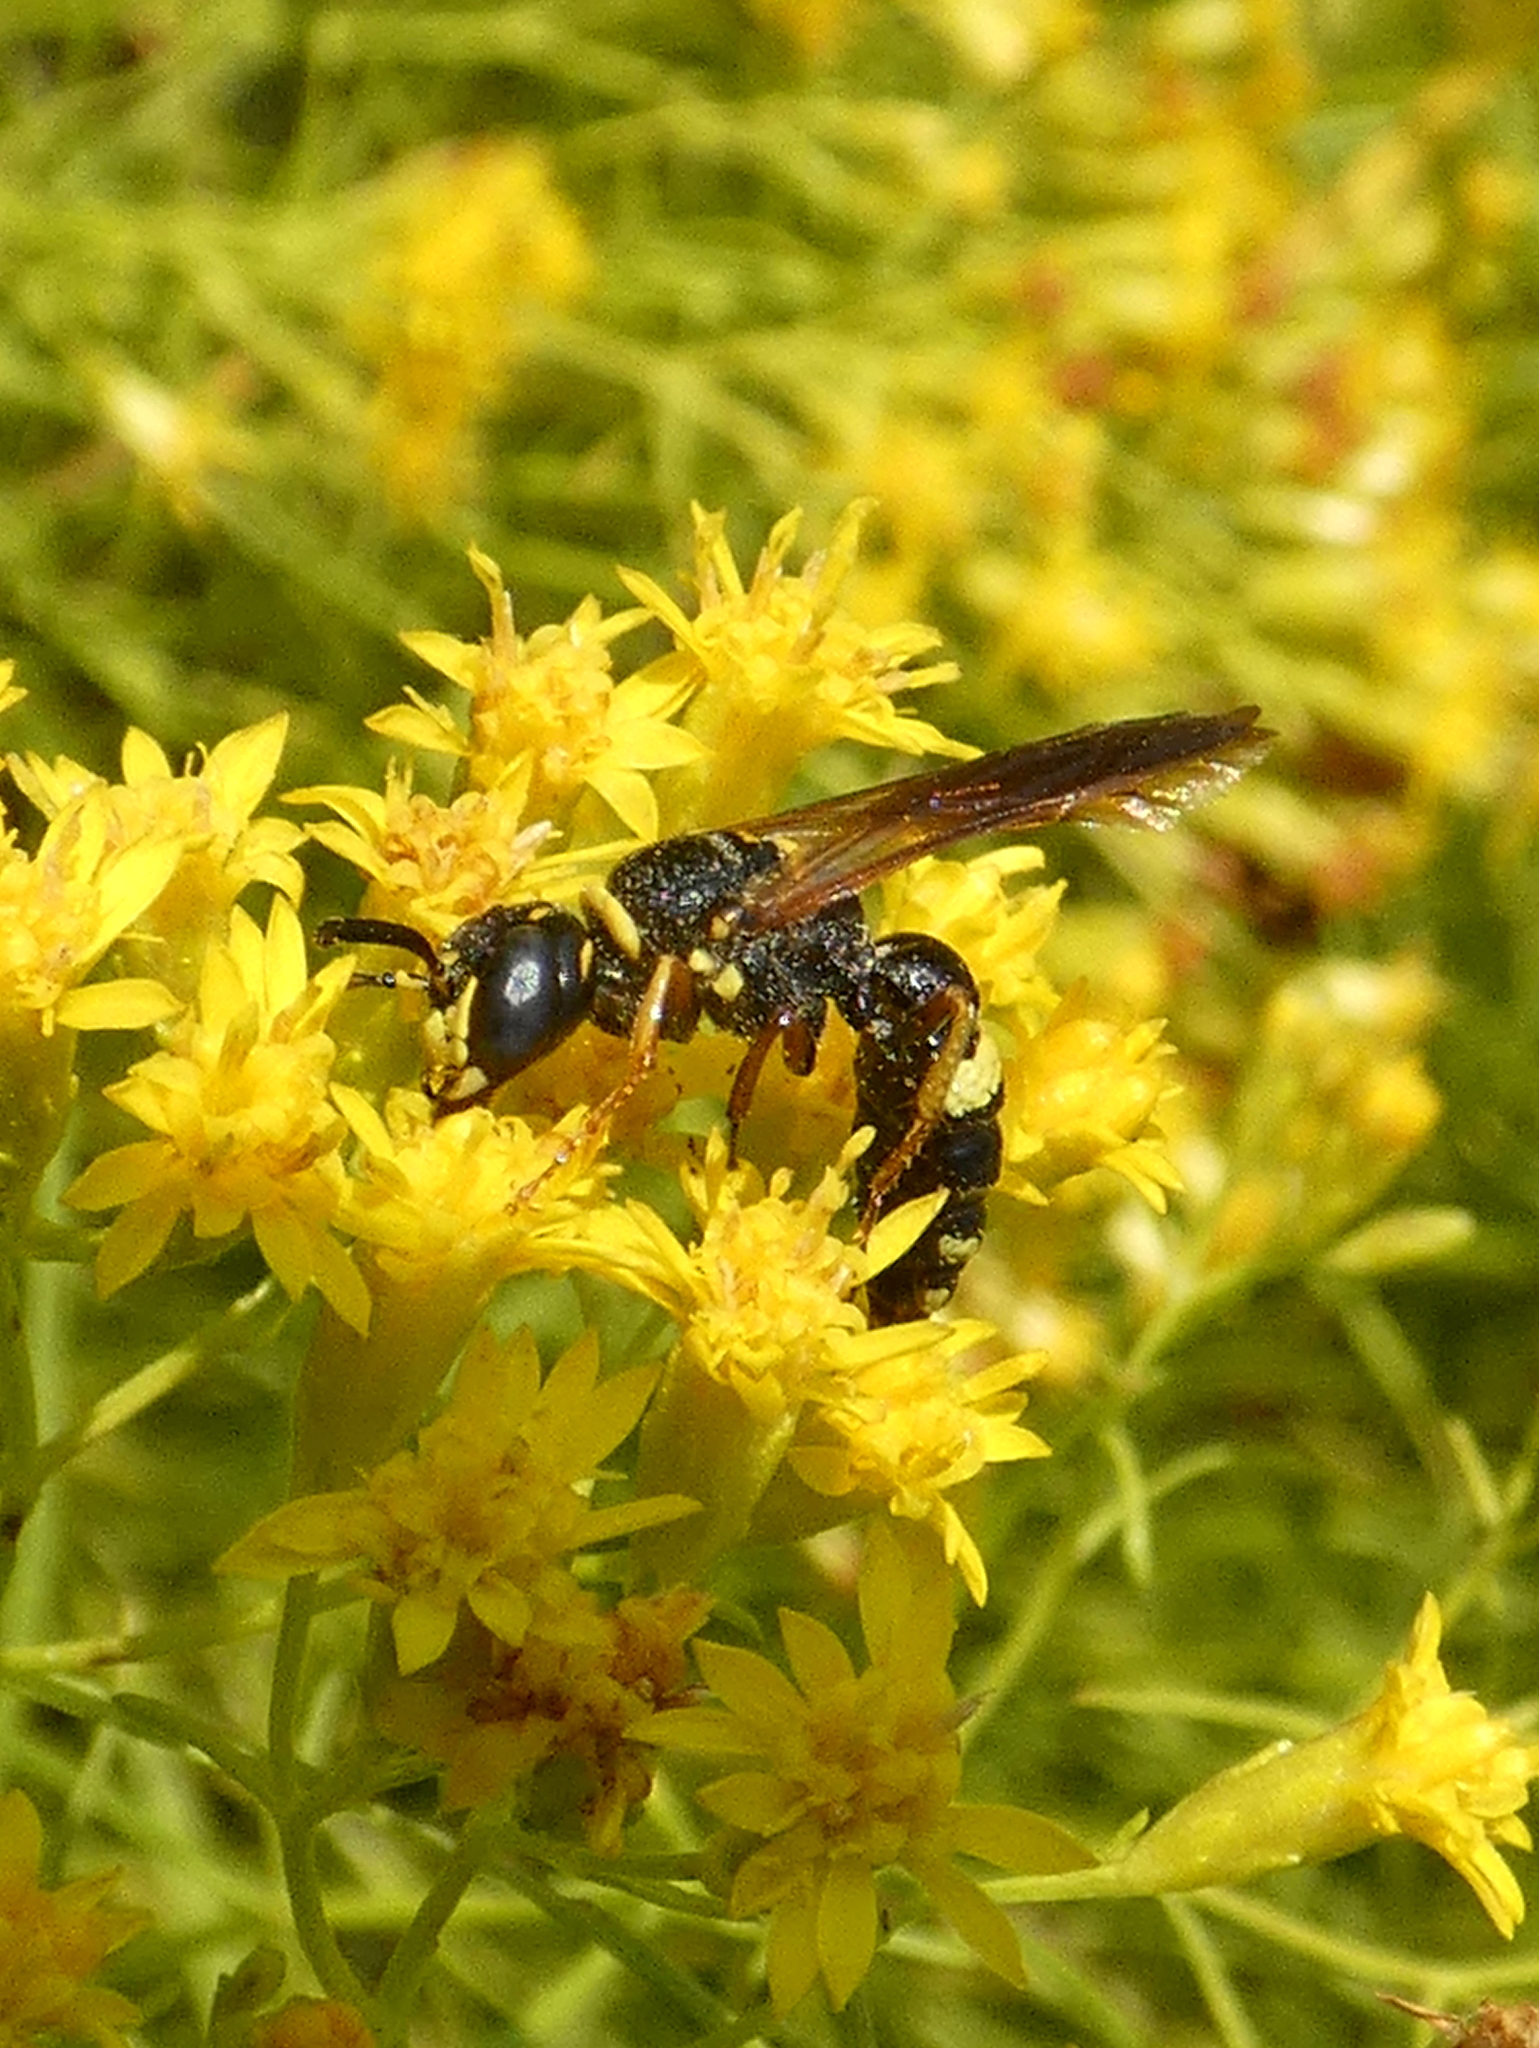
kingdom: Animalia
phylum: Arthropoda
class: Insecta
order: Hymenoptera
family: Crabronidae
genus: Philanthus
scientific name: Philanthus gibbosus
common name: Humped beewolf
